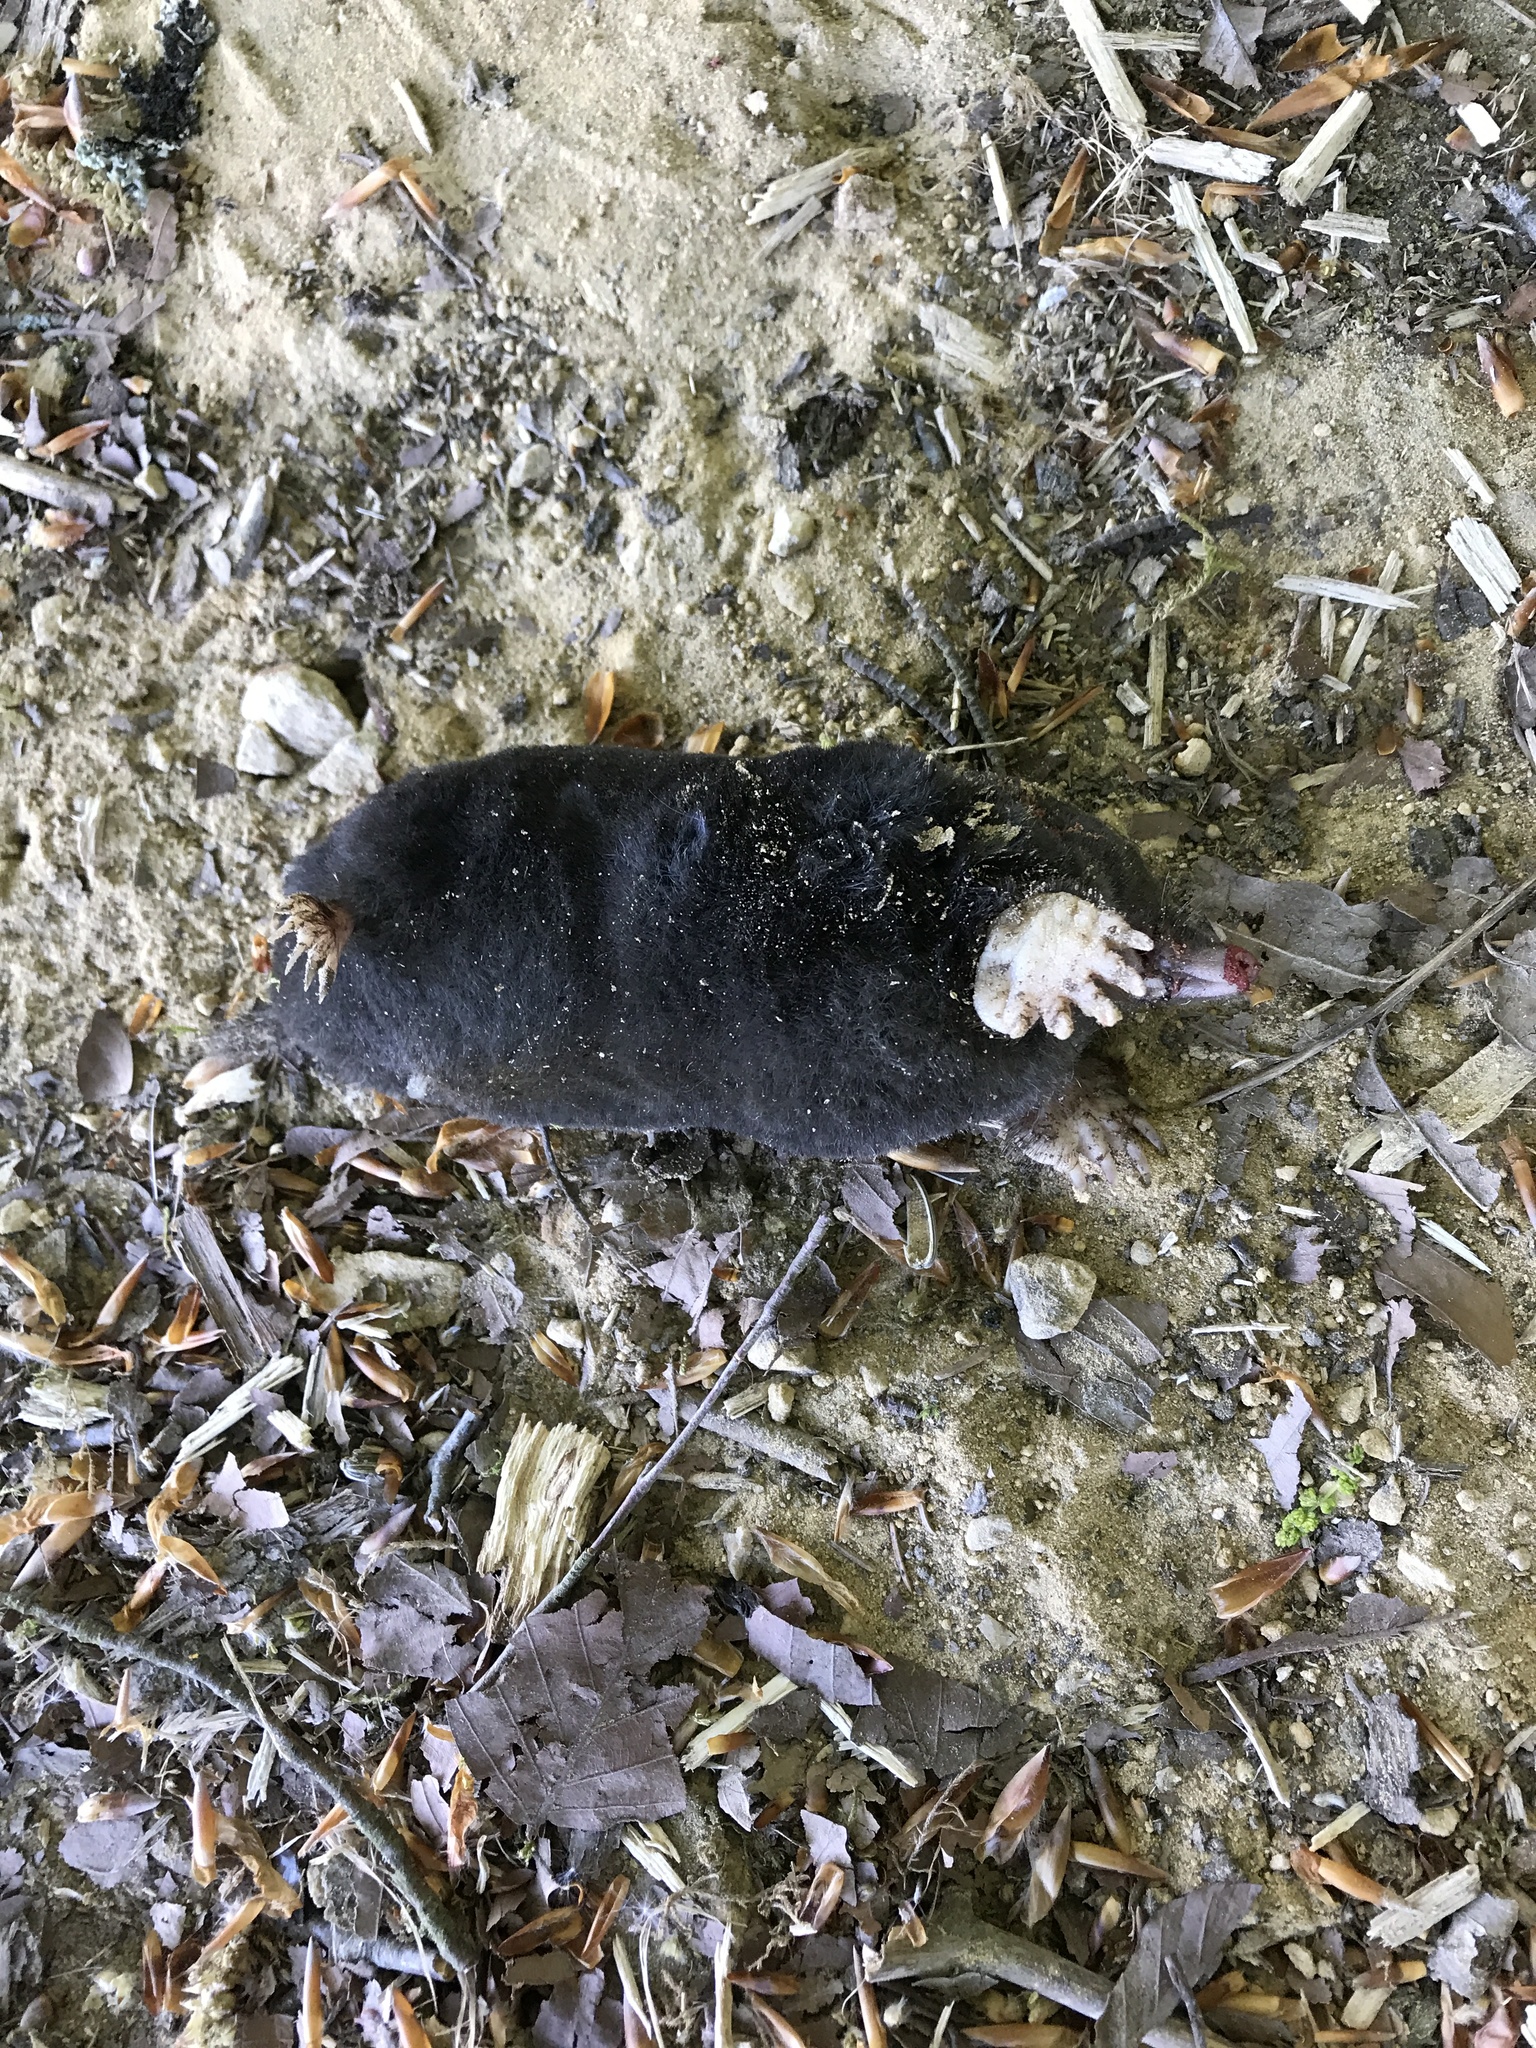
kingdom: Animalia
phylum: Chordata
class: Mammalia
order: Soricomorpha
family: Talpidae
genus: Talpa
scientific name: Talpa europaea
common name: European mole
